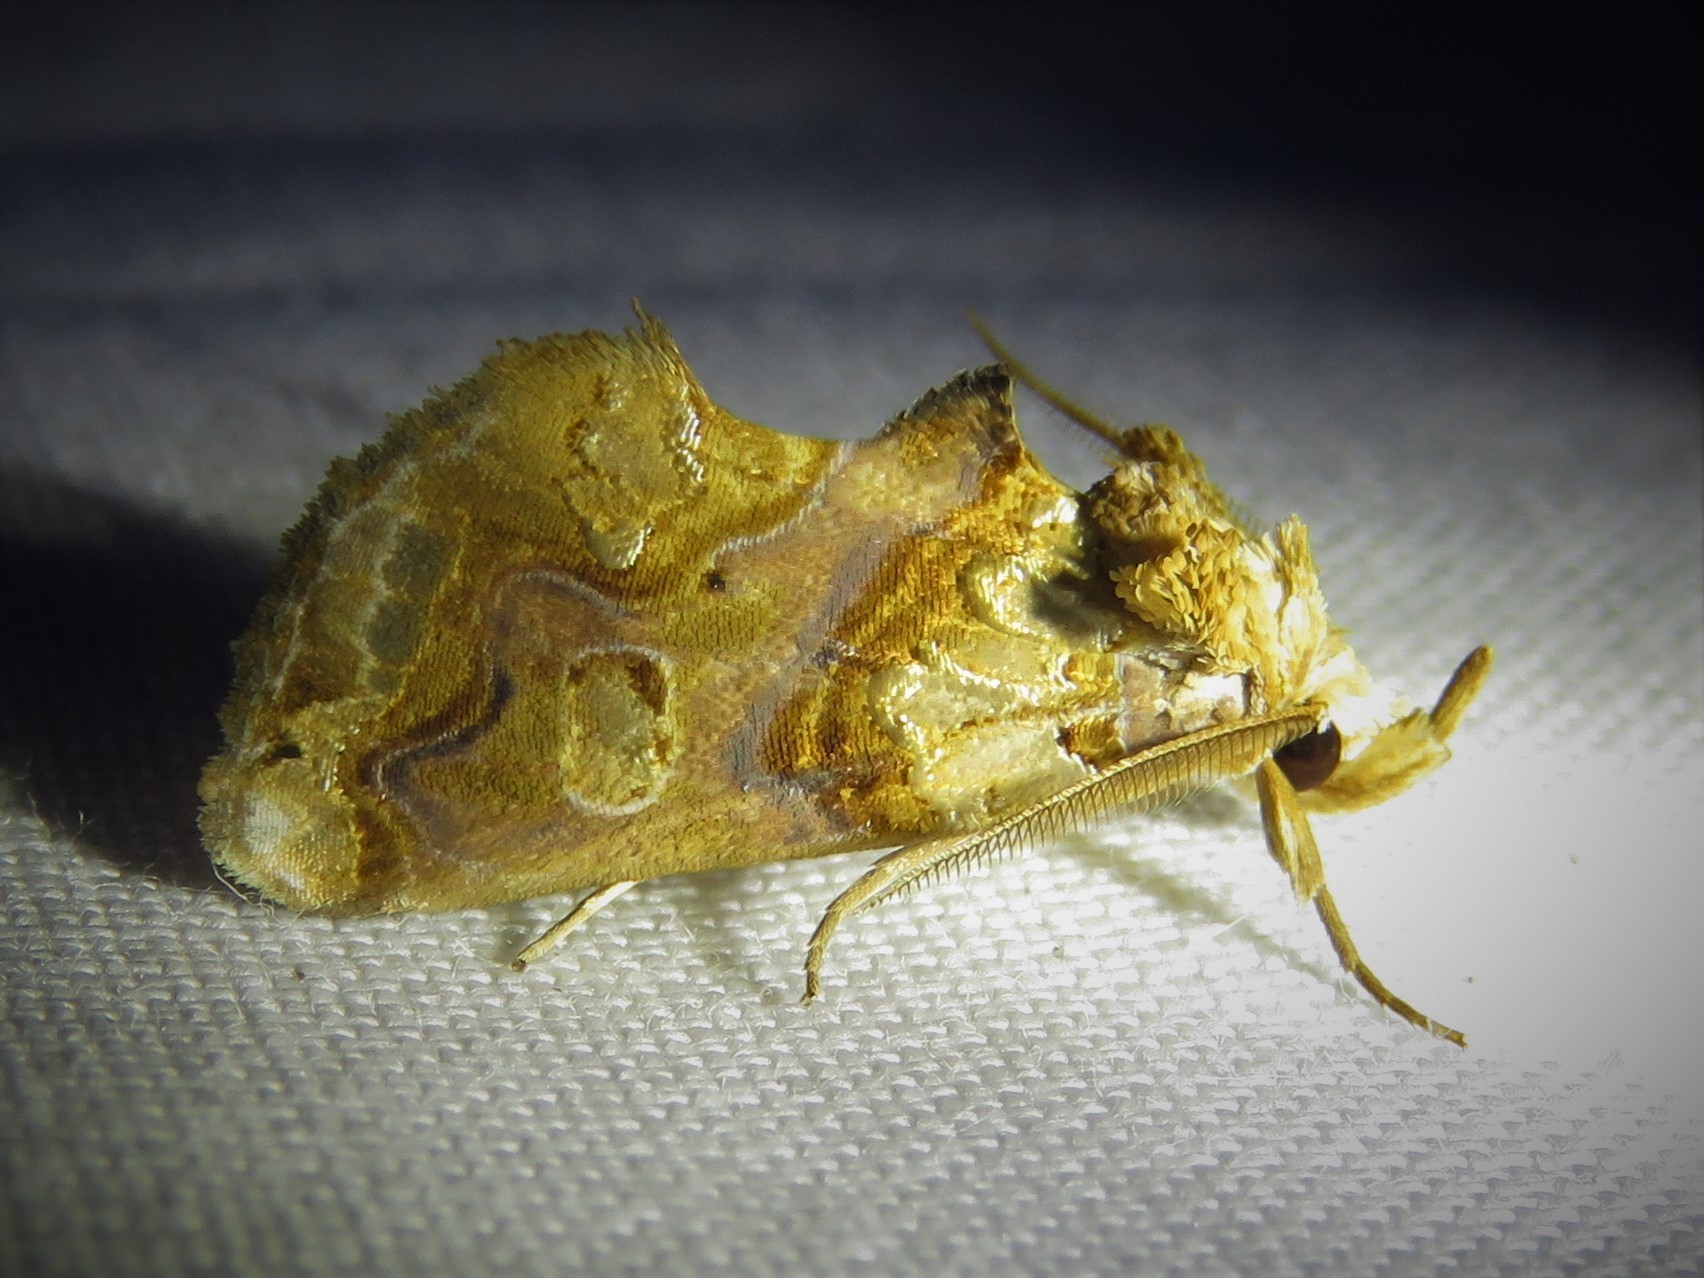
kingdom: Animalia
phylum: Arthropoda
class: Insecta
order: Lepidoptera
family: Erebidae
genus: Plusiodonta
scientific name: Plusiodonta compressipalpis
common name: Moonseed moth
